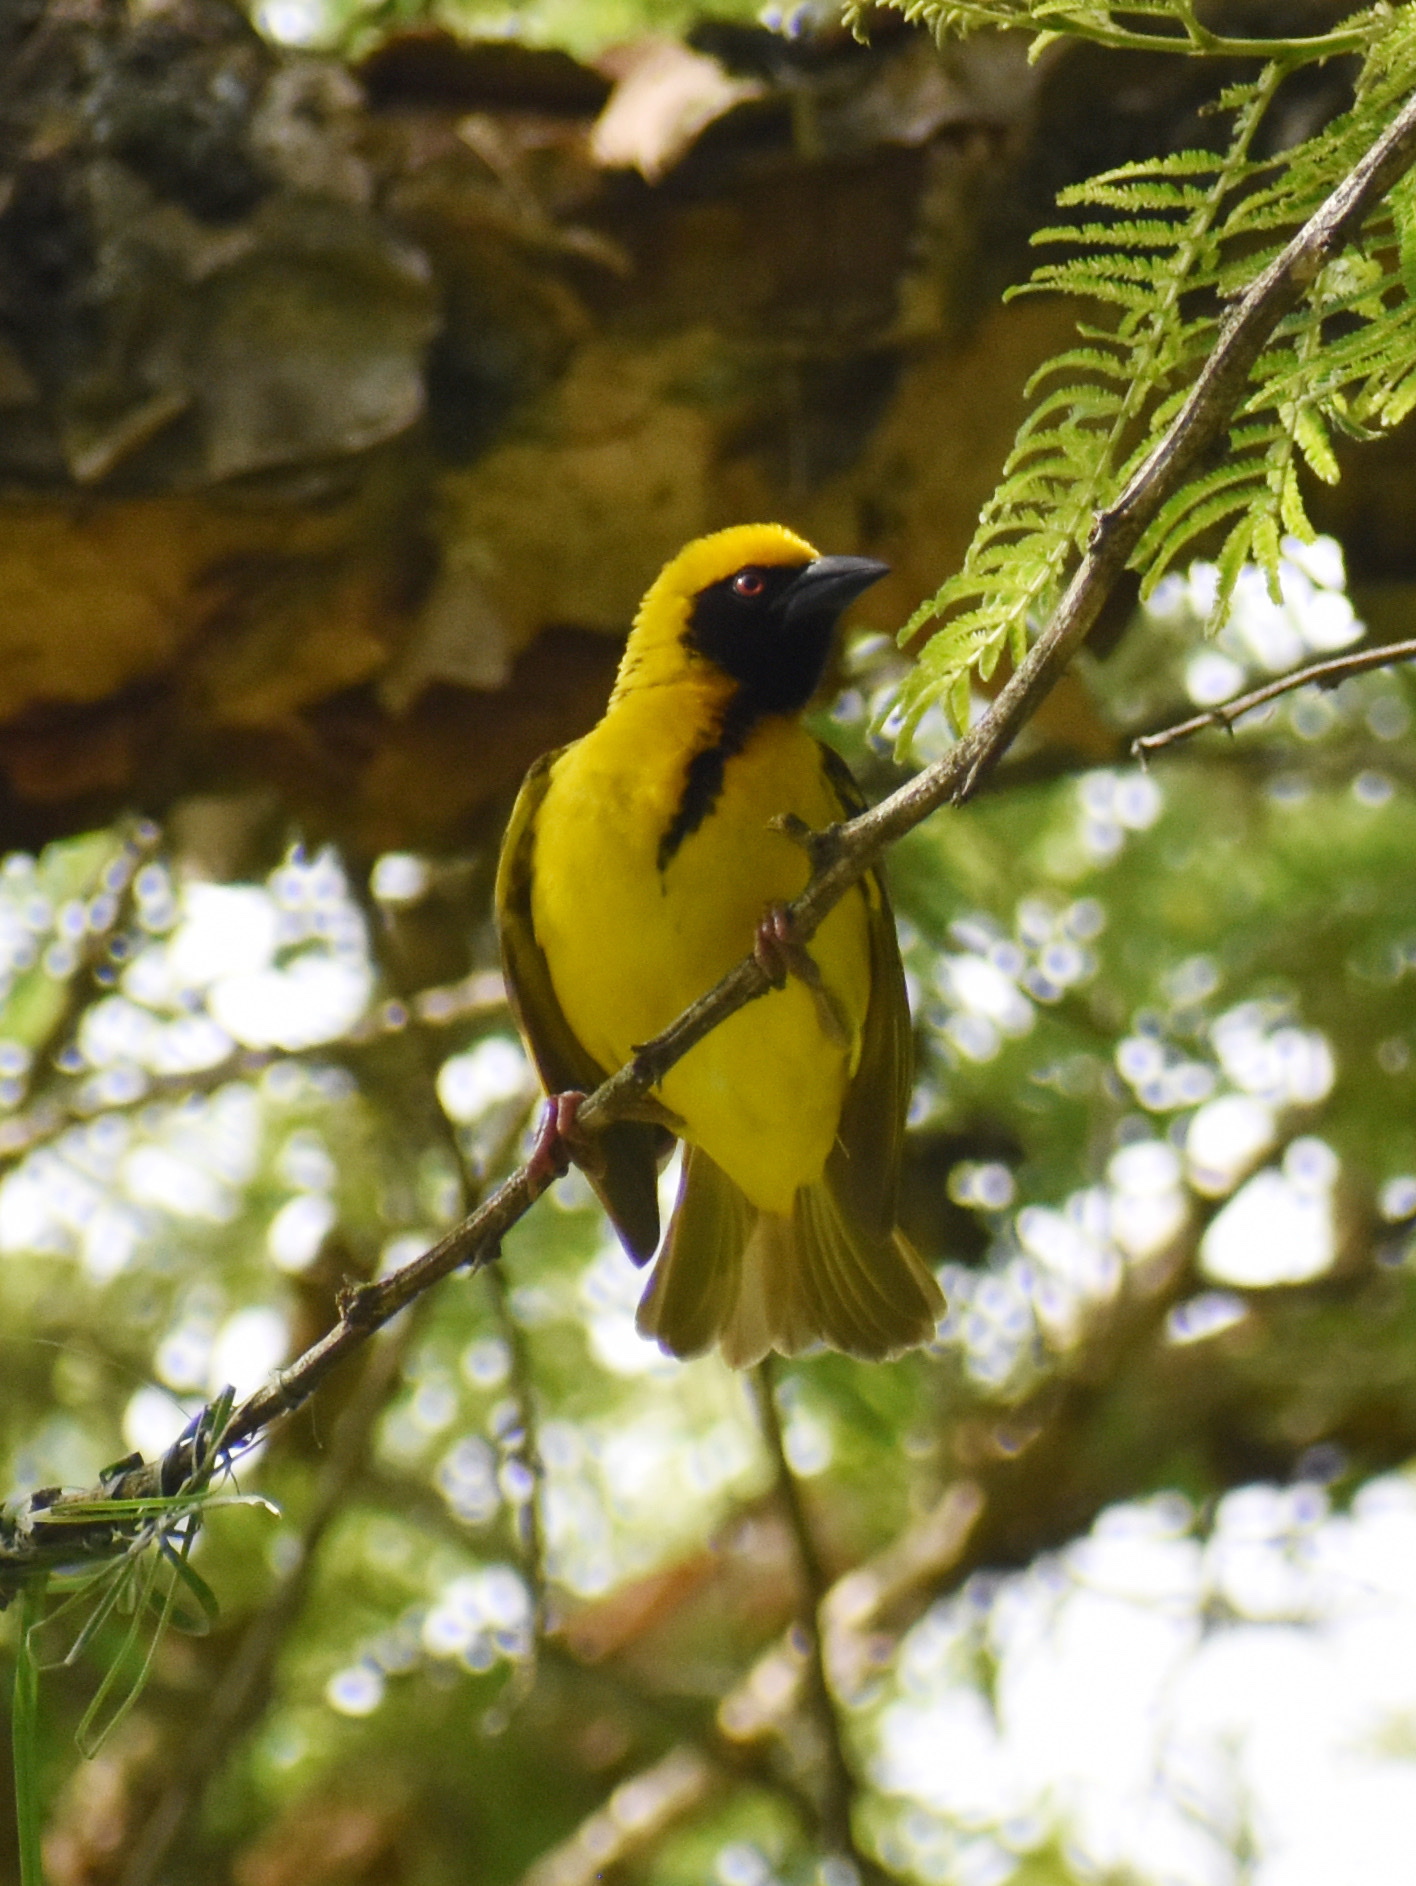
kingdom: Animalia
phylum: Chordata
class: Aves
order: Passeriformes
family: Ploceidae
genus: Ploceus
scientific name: Ploceus cucullatus
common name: Village weaver
